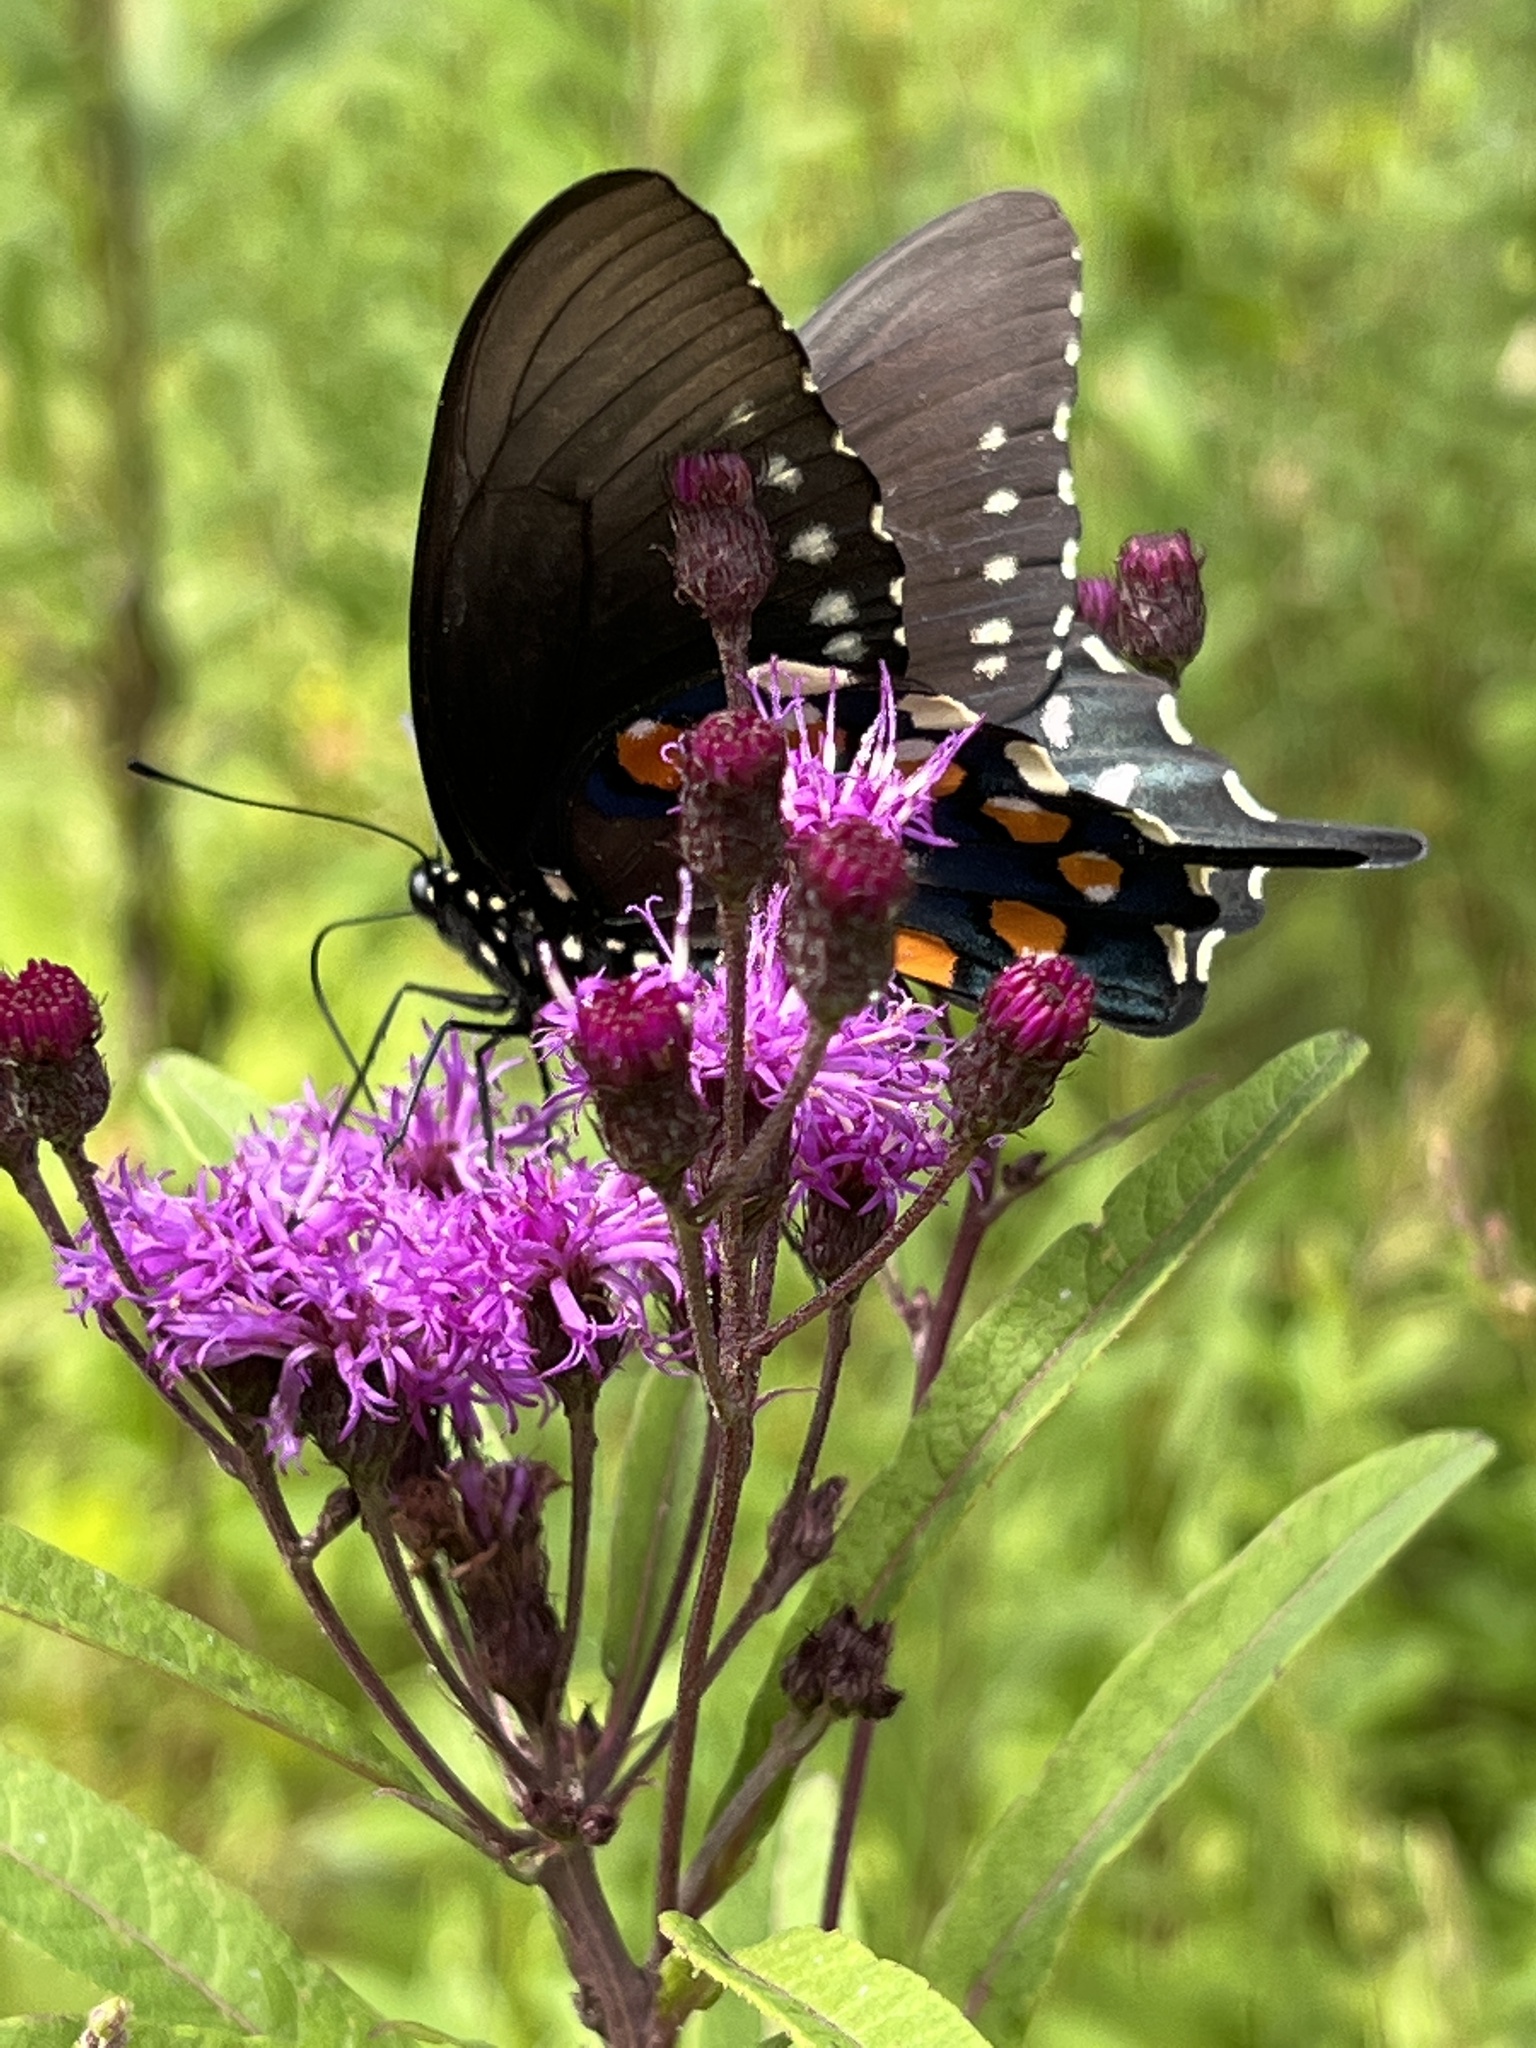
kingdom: Animalia
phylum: Arthropoda
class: Insecta
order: Lepidoptera
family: Papilionidae
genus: Battus
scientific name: Battus philenor
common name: Pipevine swallowtail
